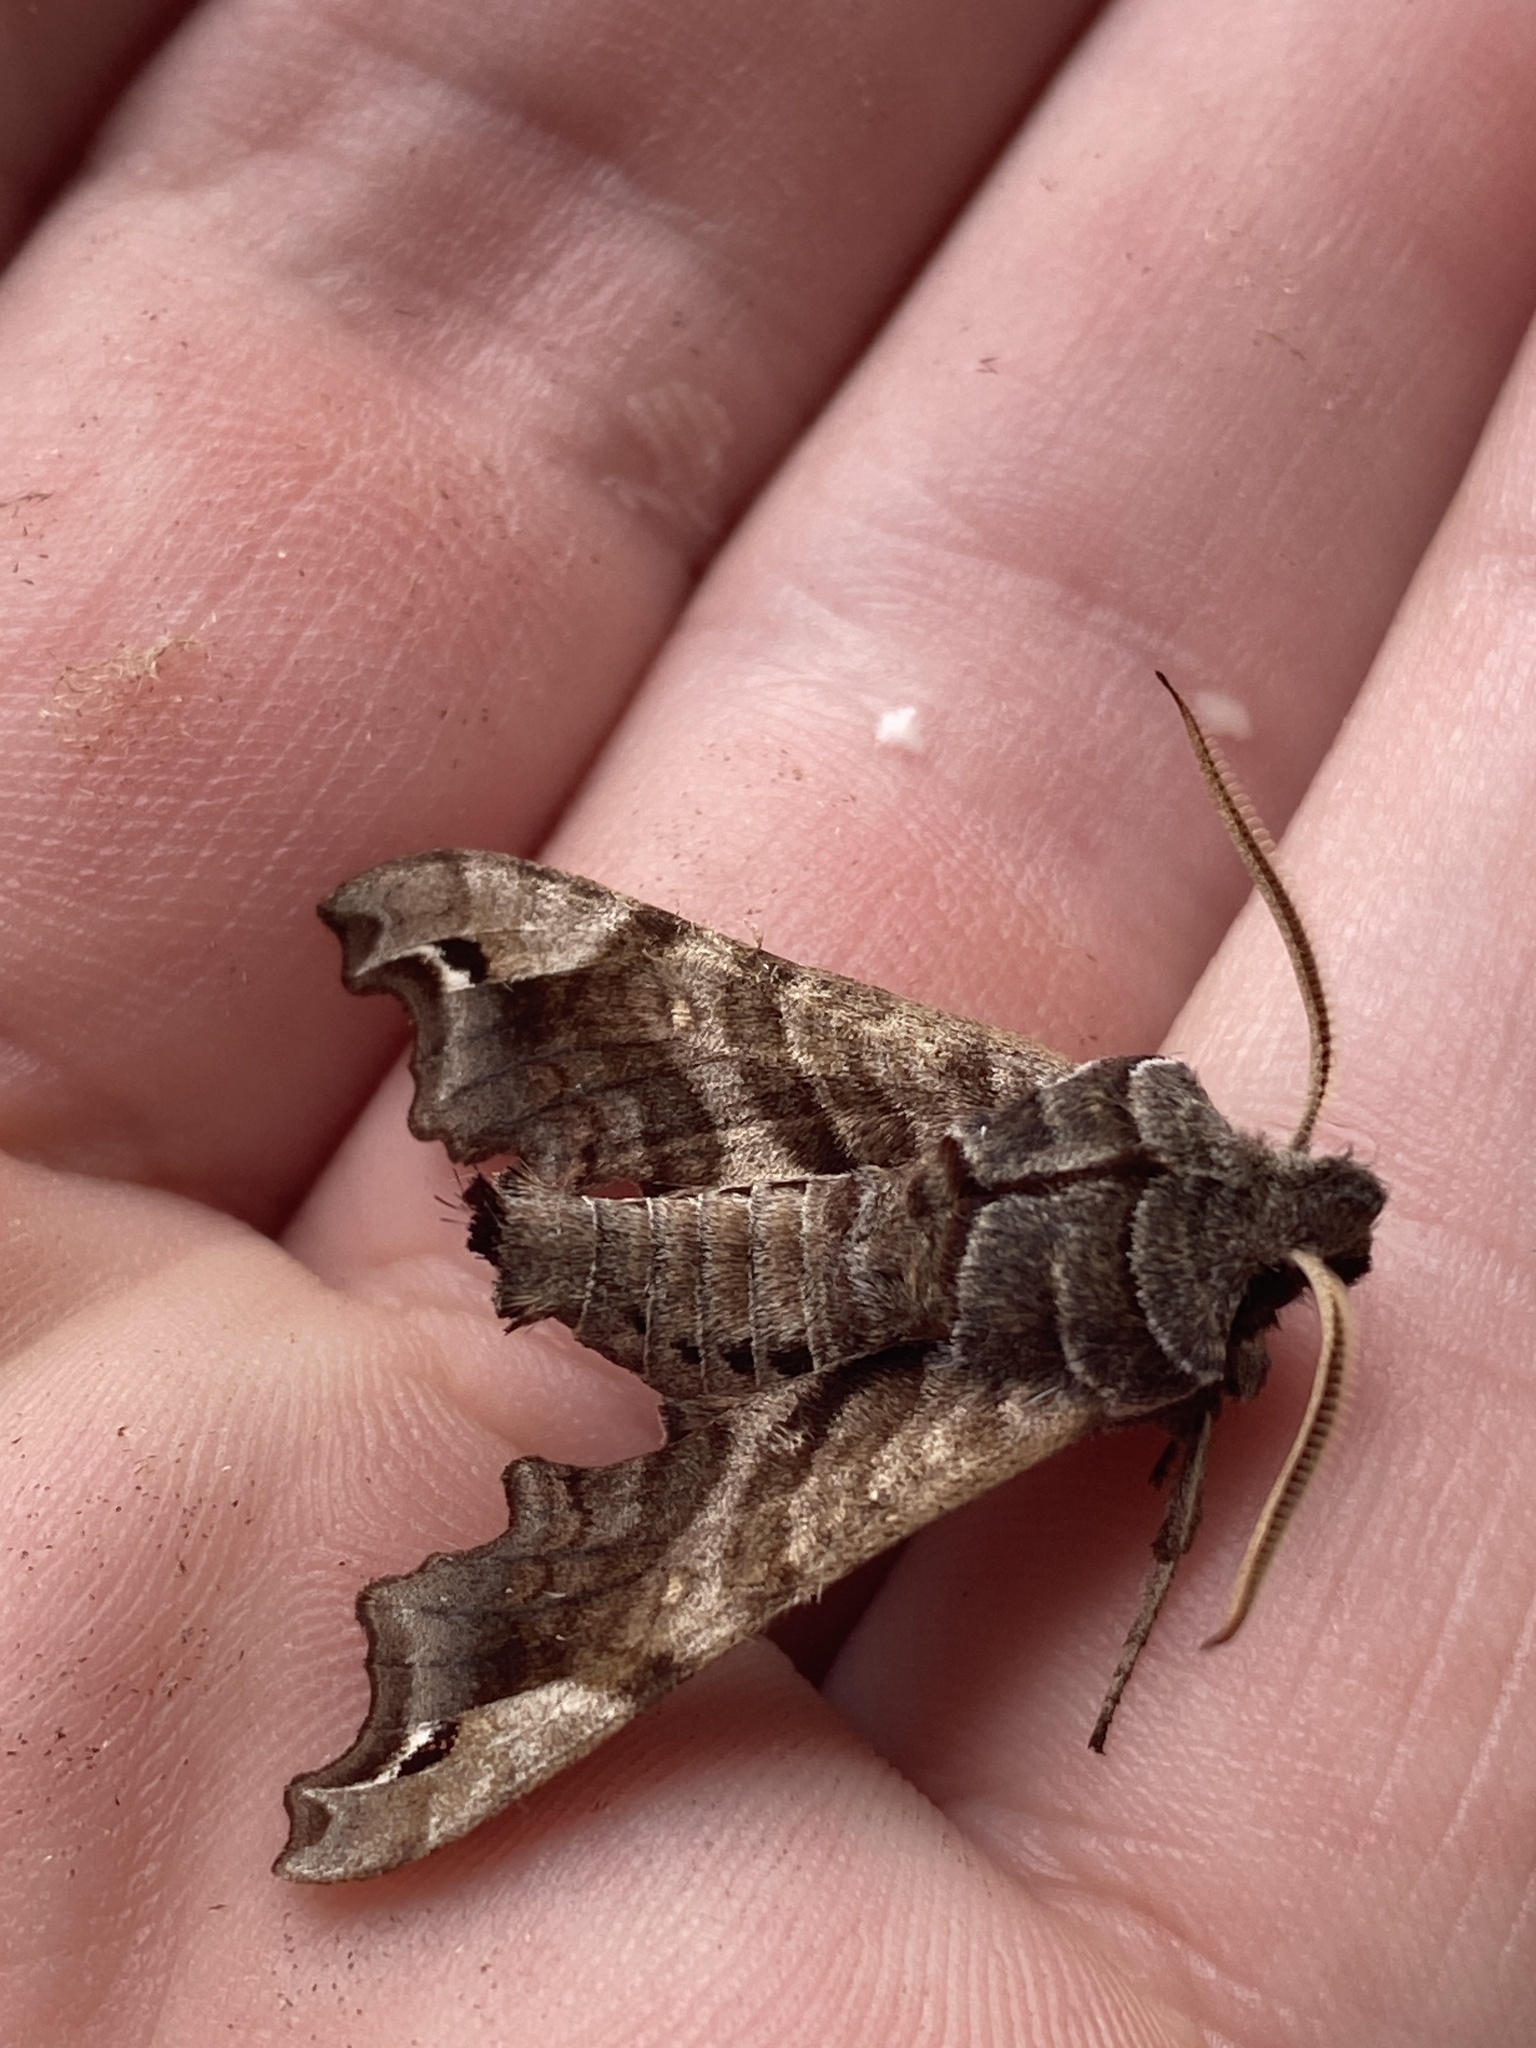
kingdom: Animalia
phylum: Arthropoda
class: Insecta
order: Lepidoptera
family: Sphingidae
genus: Deidamia
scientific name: Deidamia inscriptum
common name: Lettered sphinx
